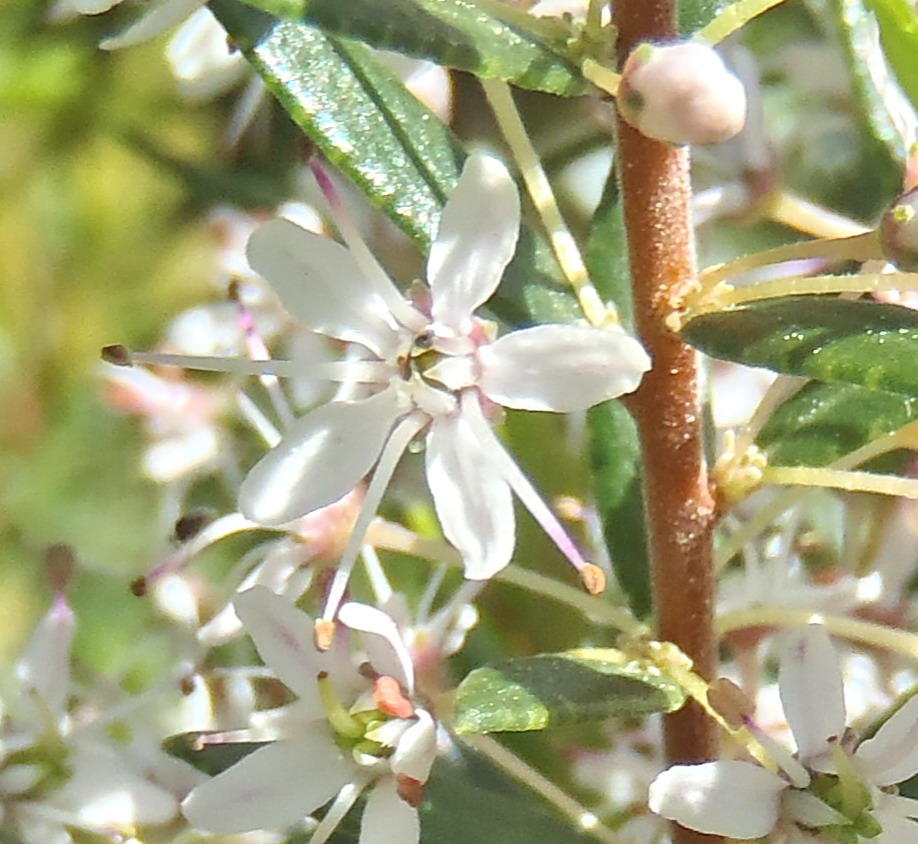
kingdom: Plantae
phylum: Tracheophyta
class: Magnoliopsida
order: Sapindales
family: Rutaceae
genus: Agathosma
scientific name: Agathosma ovata
